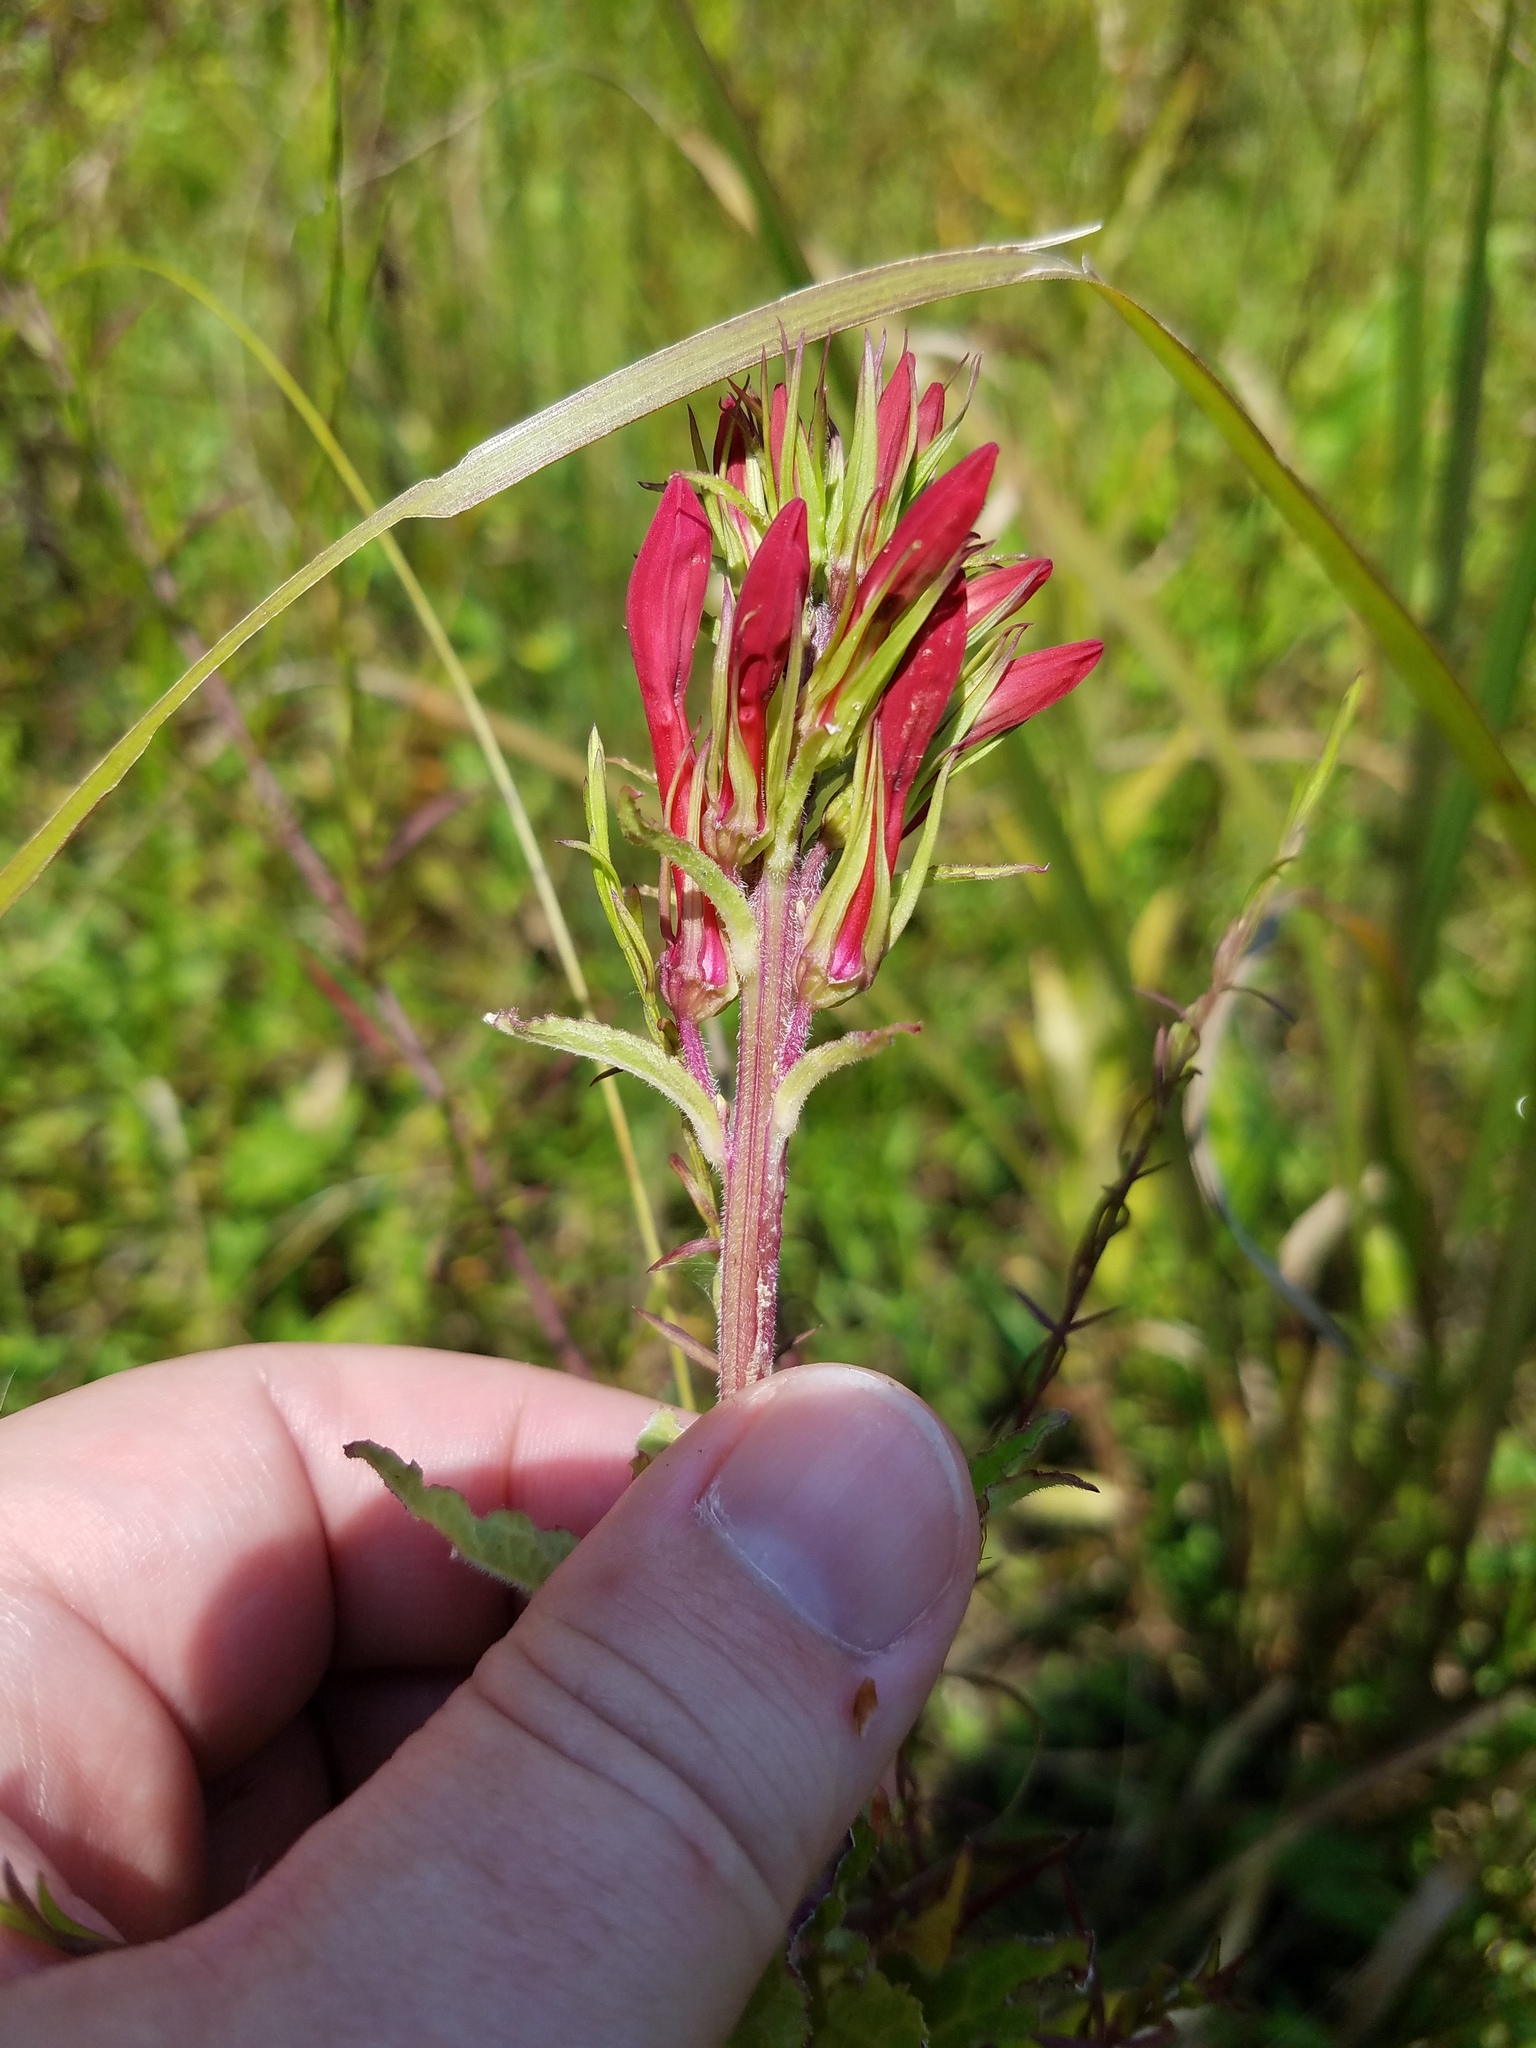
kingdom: Plantae
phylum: Tracheophyta
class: Magnoliopsida
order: Asterales
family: Campanulaceae
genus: Lobelia
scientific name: Lobelia cardinalis
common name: Cardinal flower
